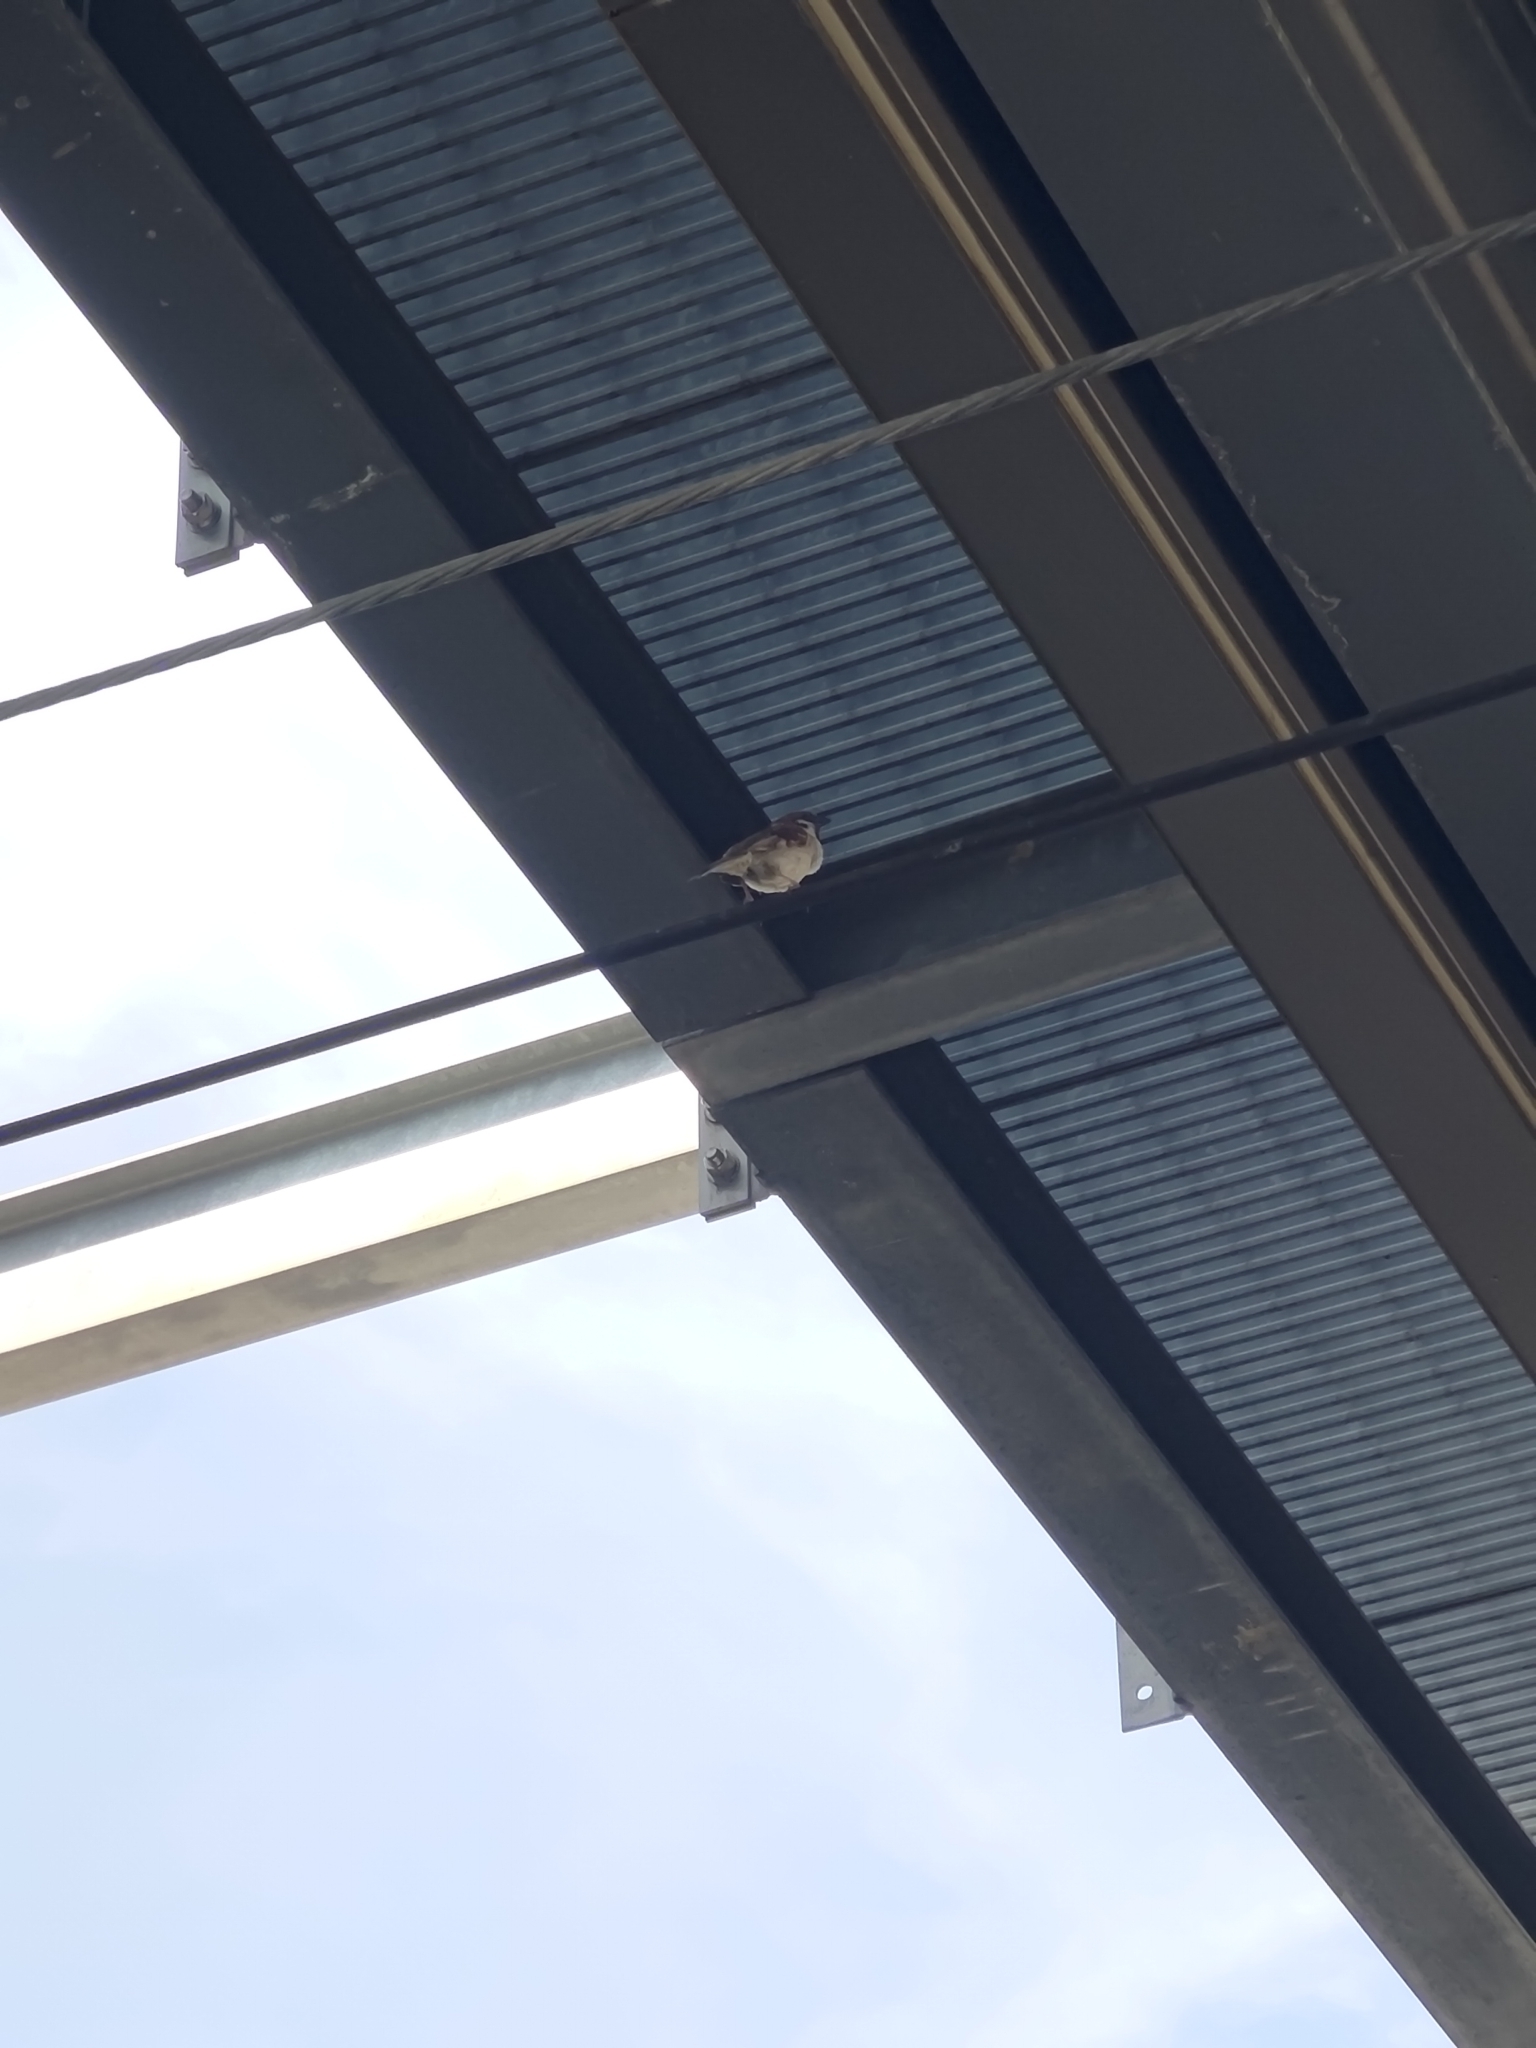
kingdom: Animalia
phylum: Chordata
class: Aves
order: Passeriformes
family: Passeridae
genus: Passer
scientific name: Passer montanus
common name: Eurasian tree sparrow
